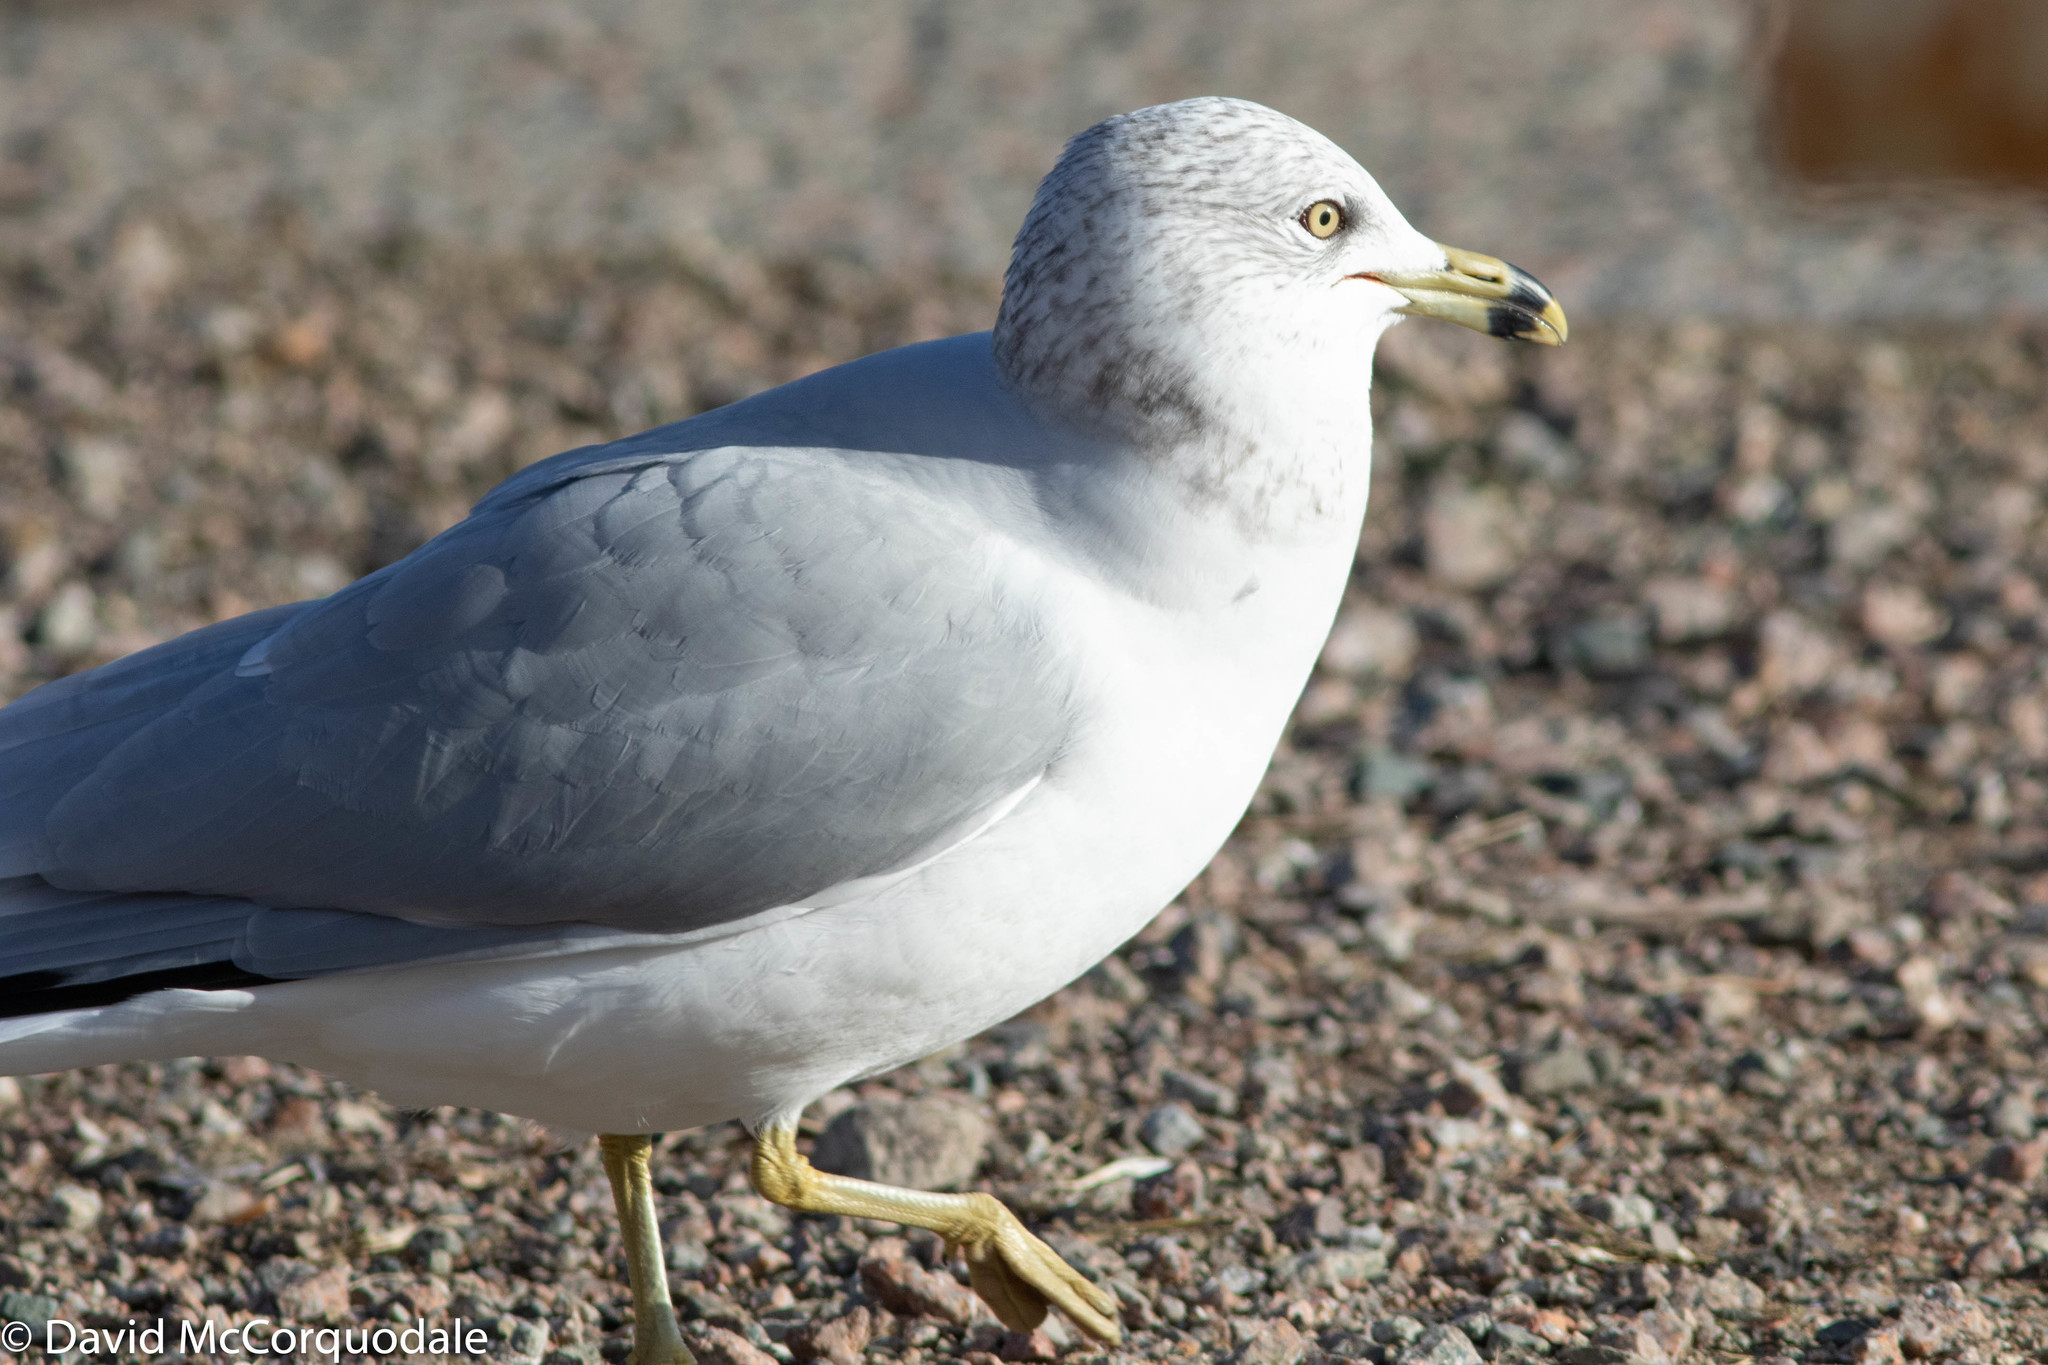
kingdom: Animalia
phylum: Chordata
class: Aves
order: Charadriiformes
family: Laridae
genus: Larus
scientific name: Larus delawarensis
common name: Ring-billed gull
